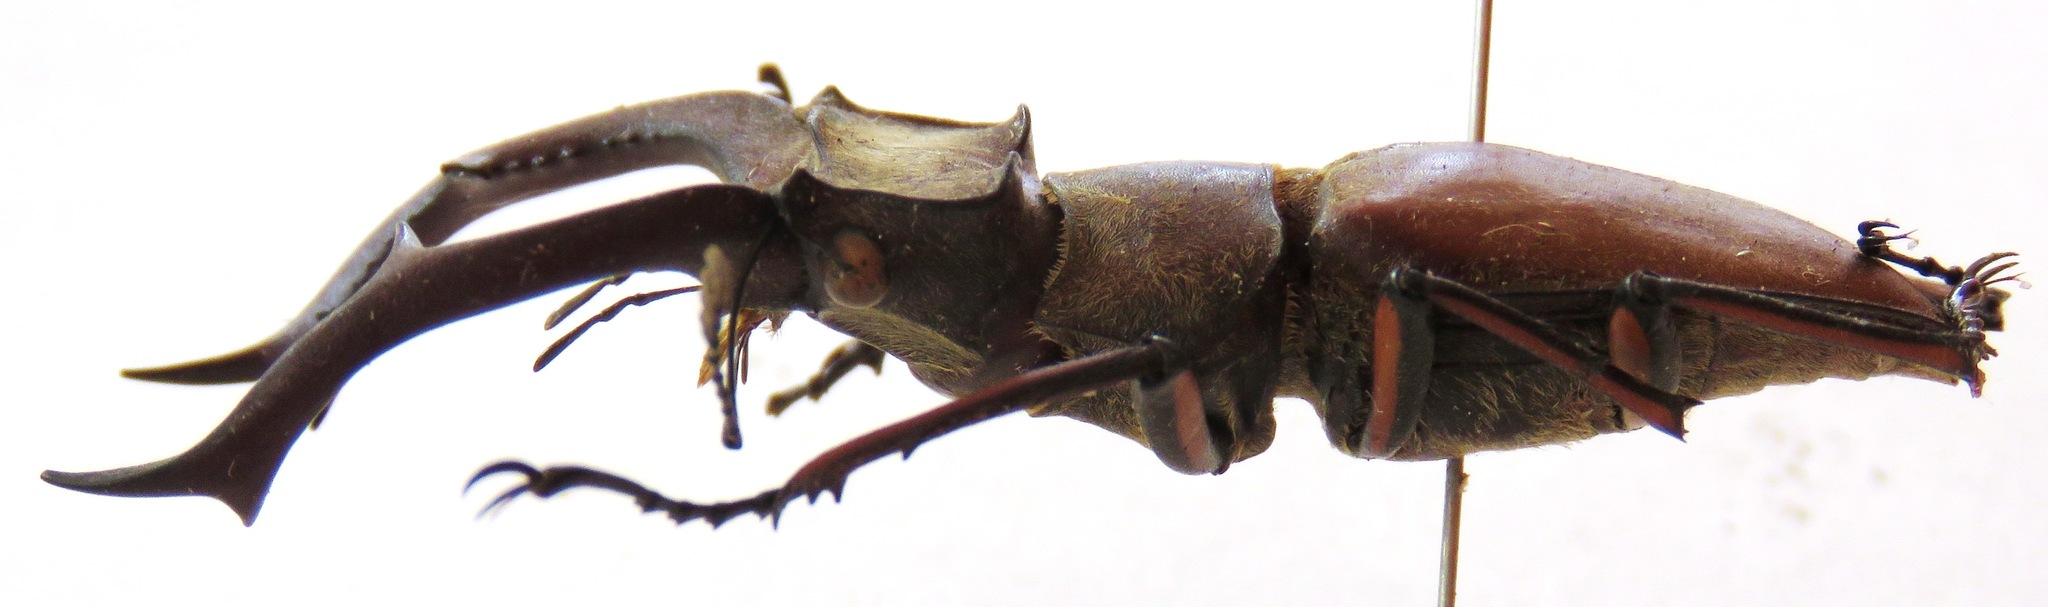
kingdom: Animalia
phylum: Arthropoda
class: Insecta
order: Coleoptera
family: Lucanidae
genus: Lucanus
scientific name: Lucanus formosus
